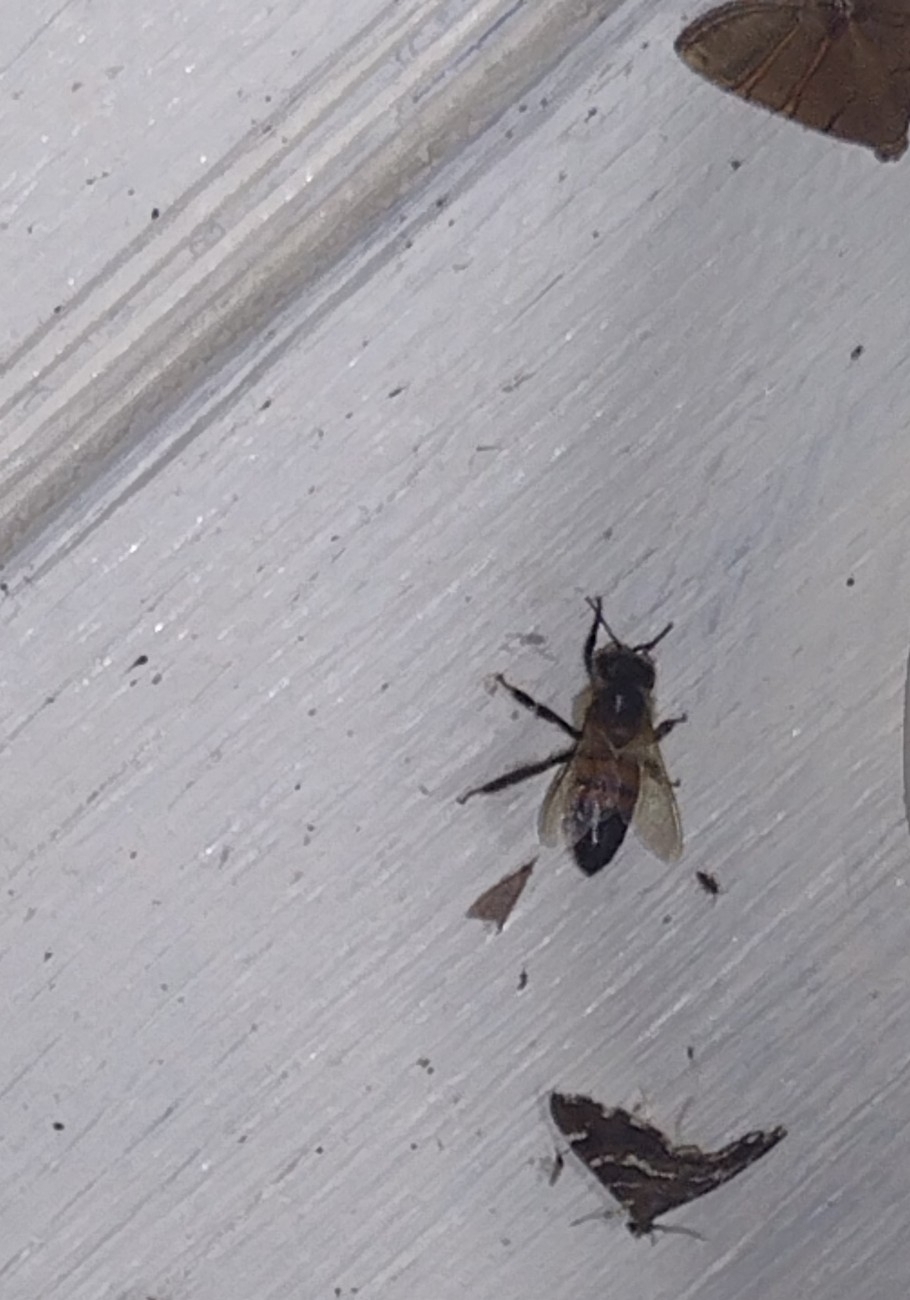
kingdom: Animalia
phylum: Arthropoda
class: Insecta
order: Hymenoptera
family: Apidae
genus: Apis
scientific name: Apis mellifera
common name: Honey bee
